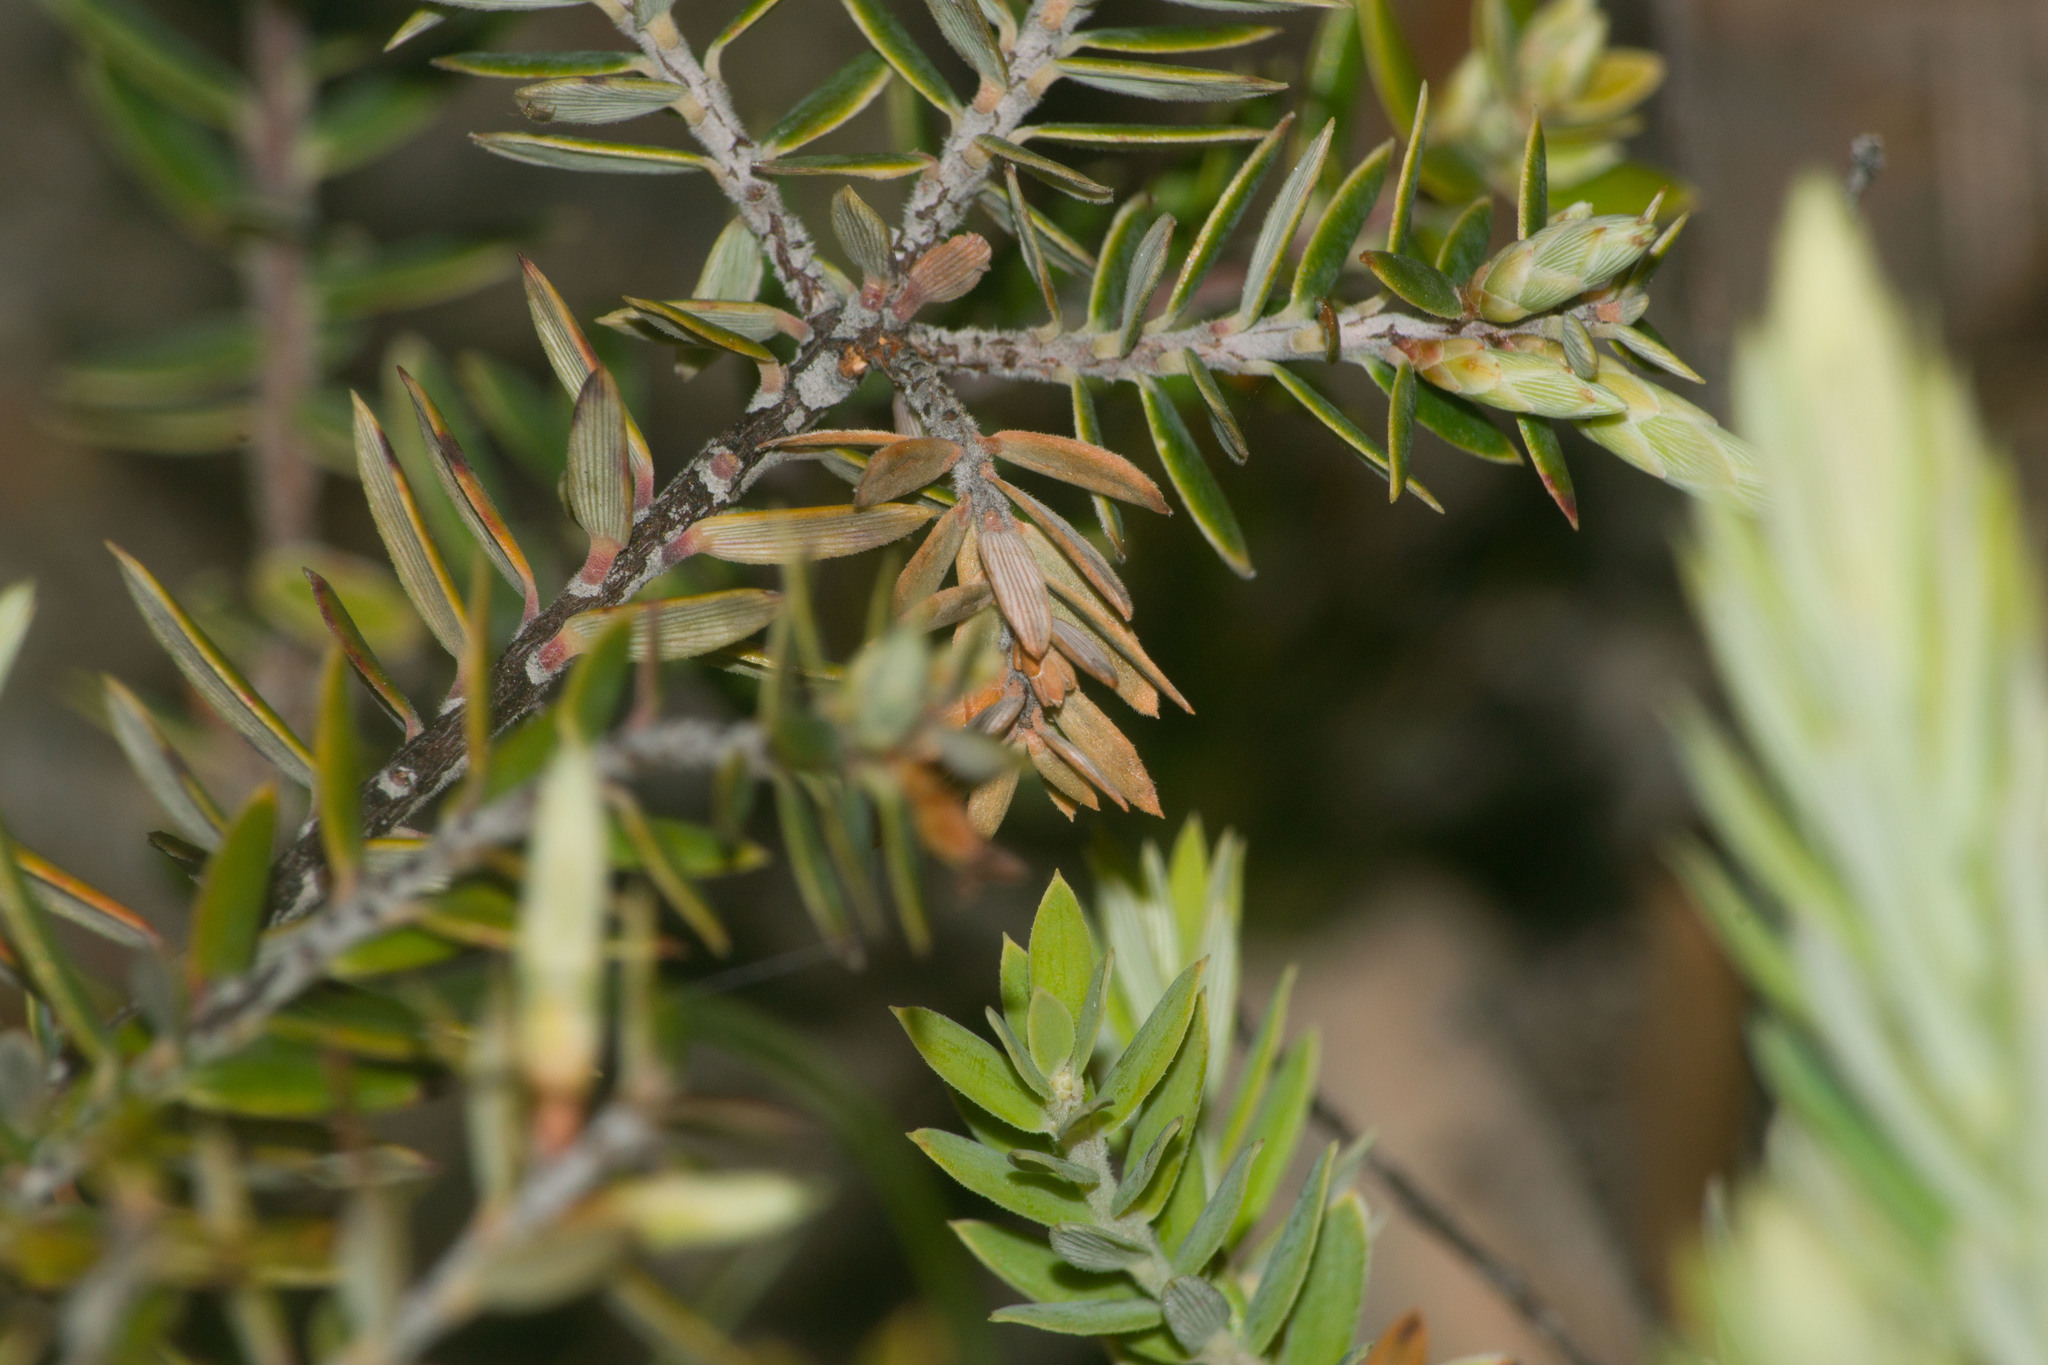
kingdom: Plantae
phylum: Tracheophyta
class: Magnoliopsida
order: Ericales
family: Ericaceae
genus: Leptecophylla
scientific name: Leptecophylla tameiameiae
